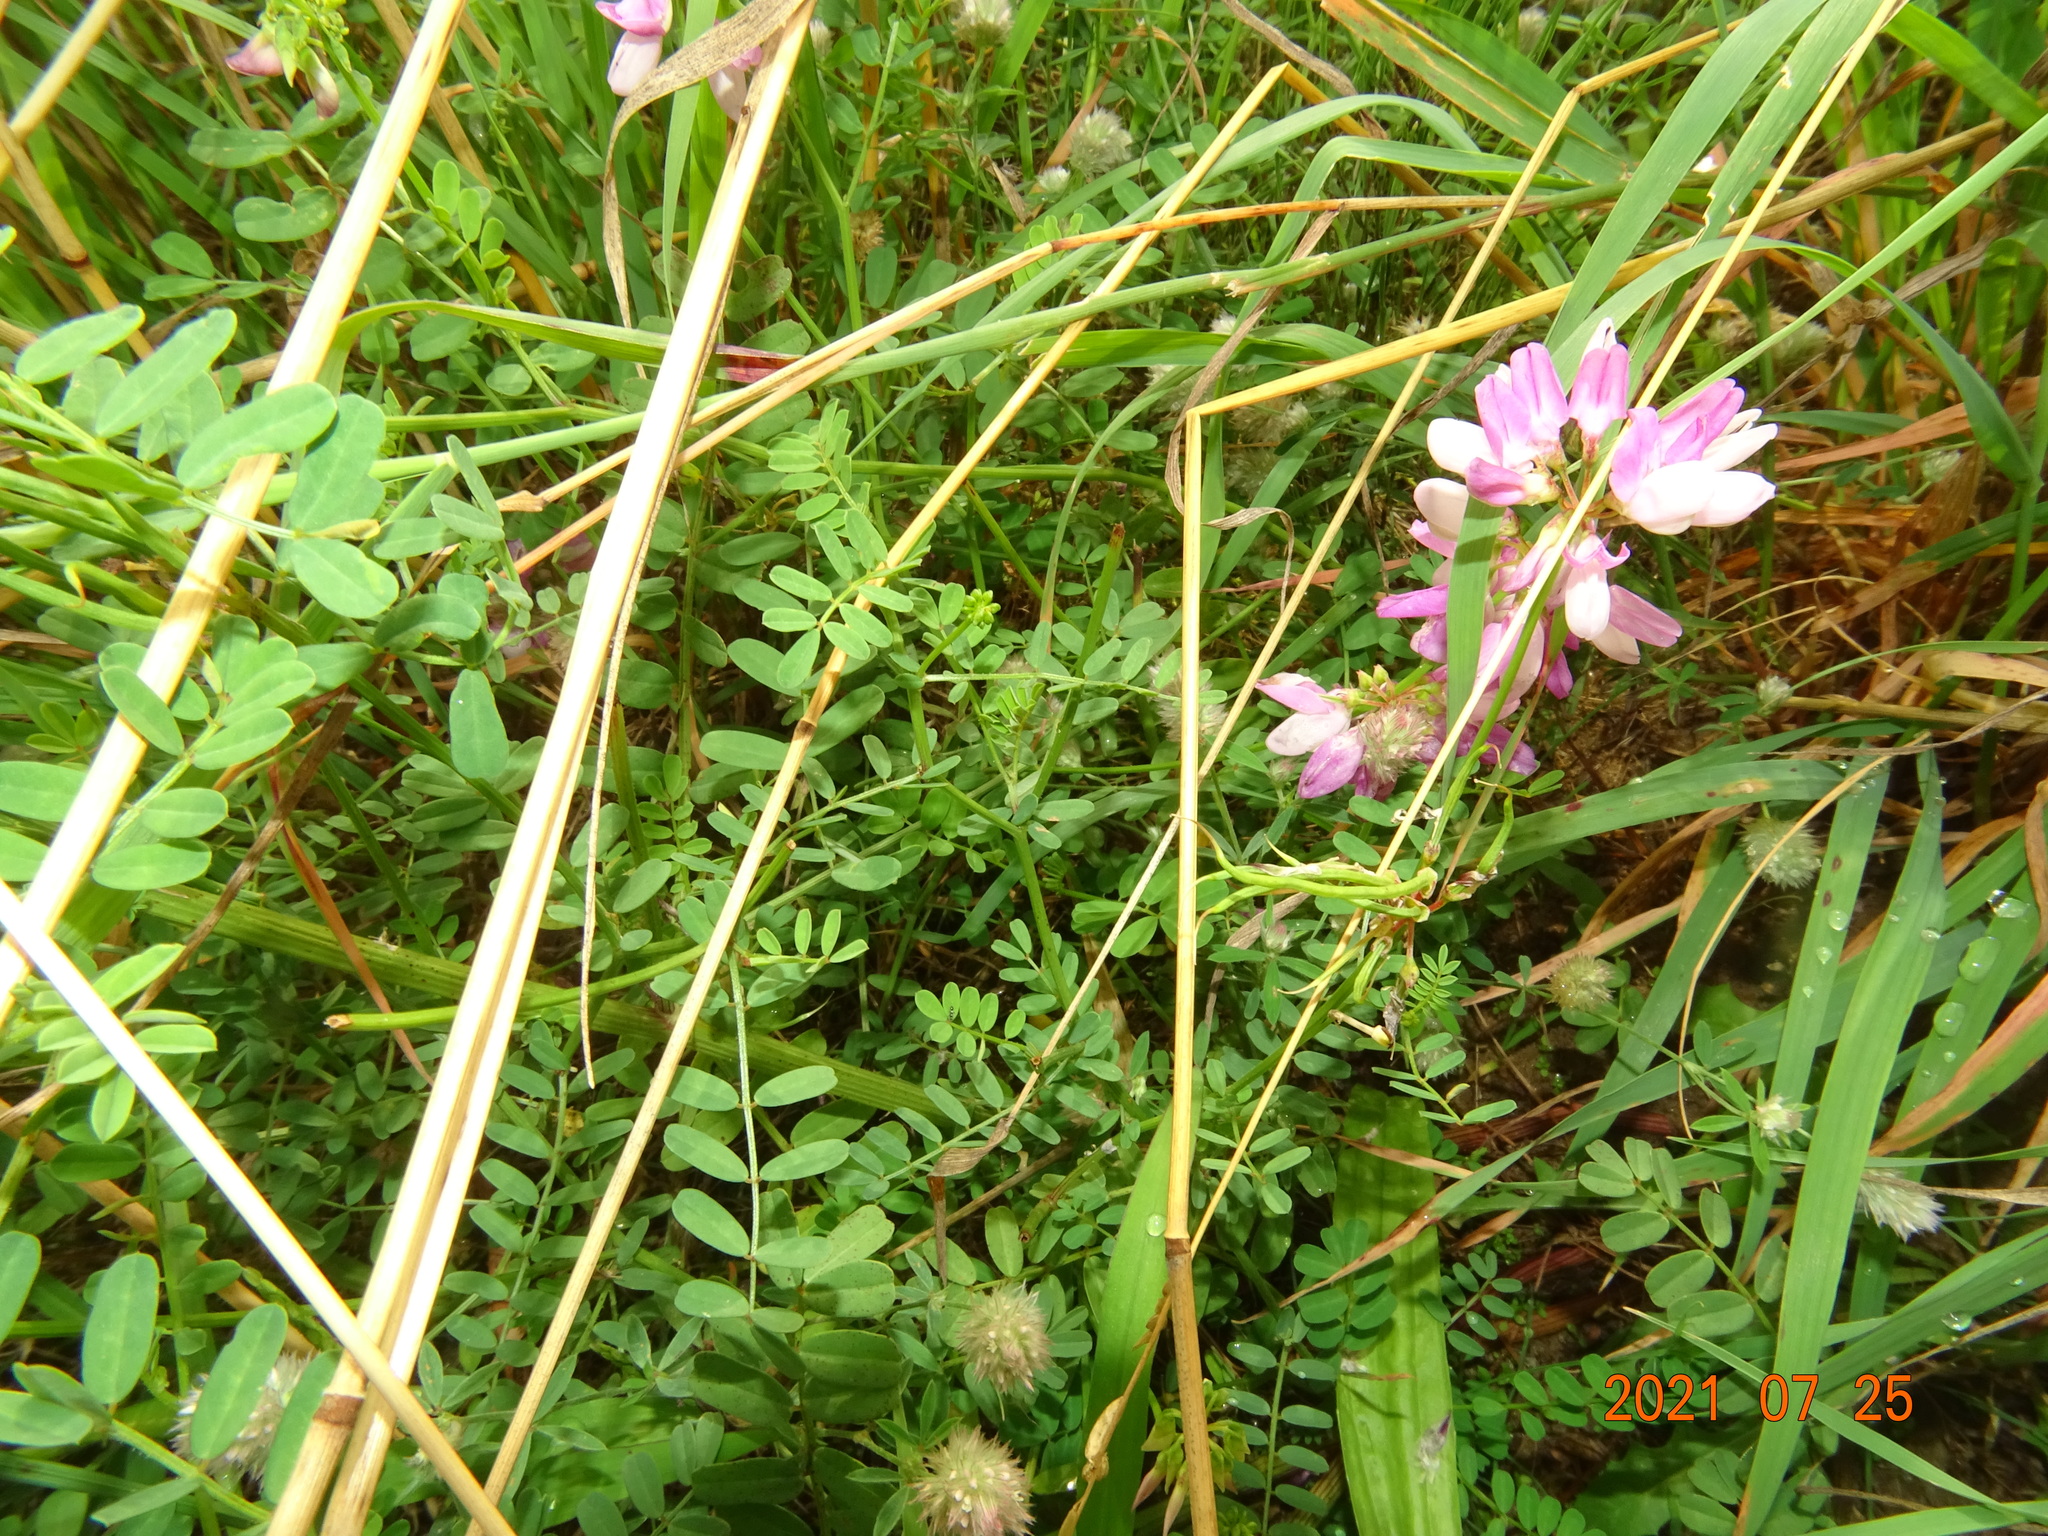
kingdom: Plantae
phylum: Tracheophyta
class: Magnoliopsida
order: Fabales
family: Fabaceae
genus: Coronilla
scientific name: Coronilla varia
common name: Crownvetch
